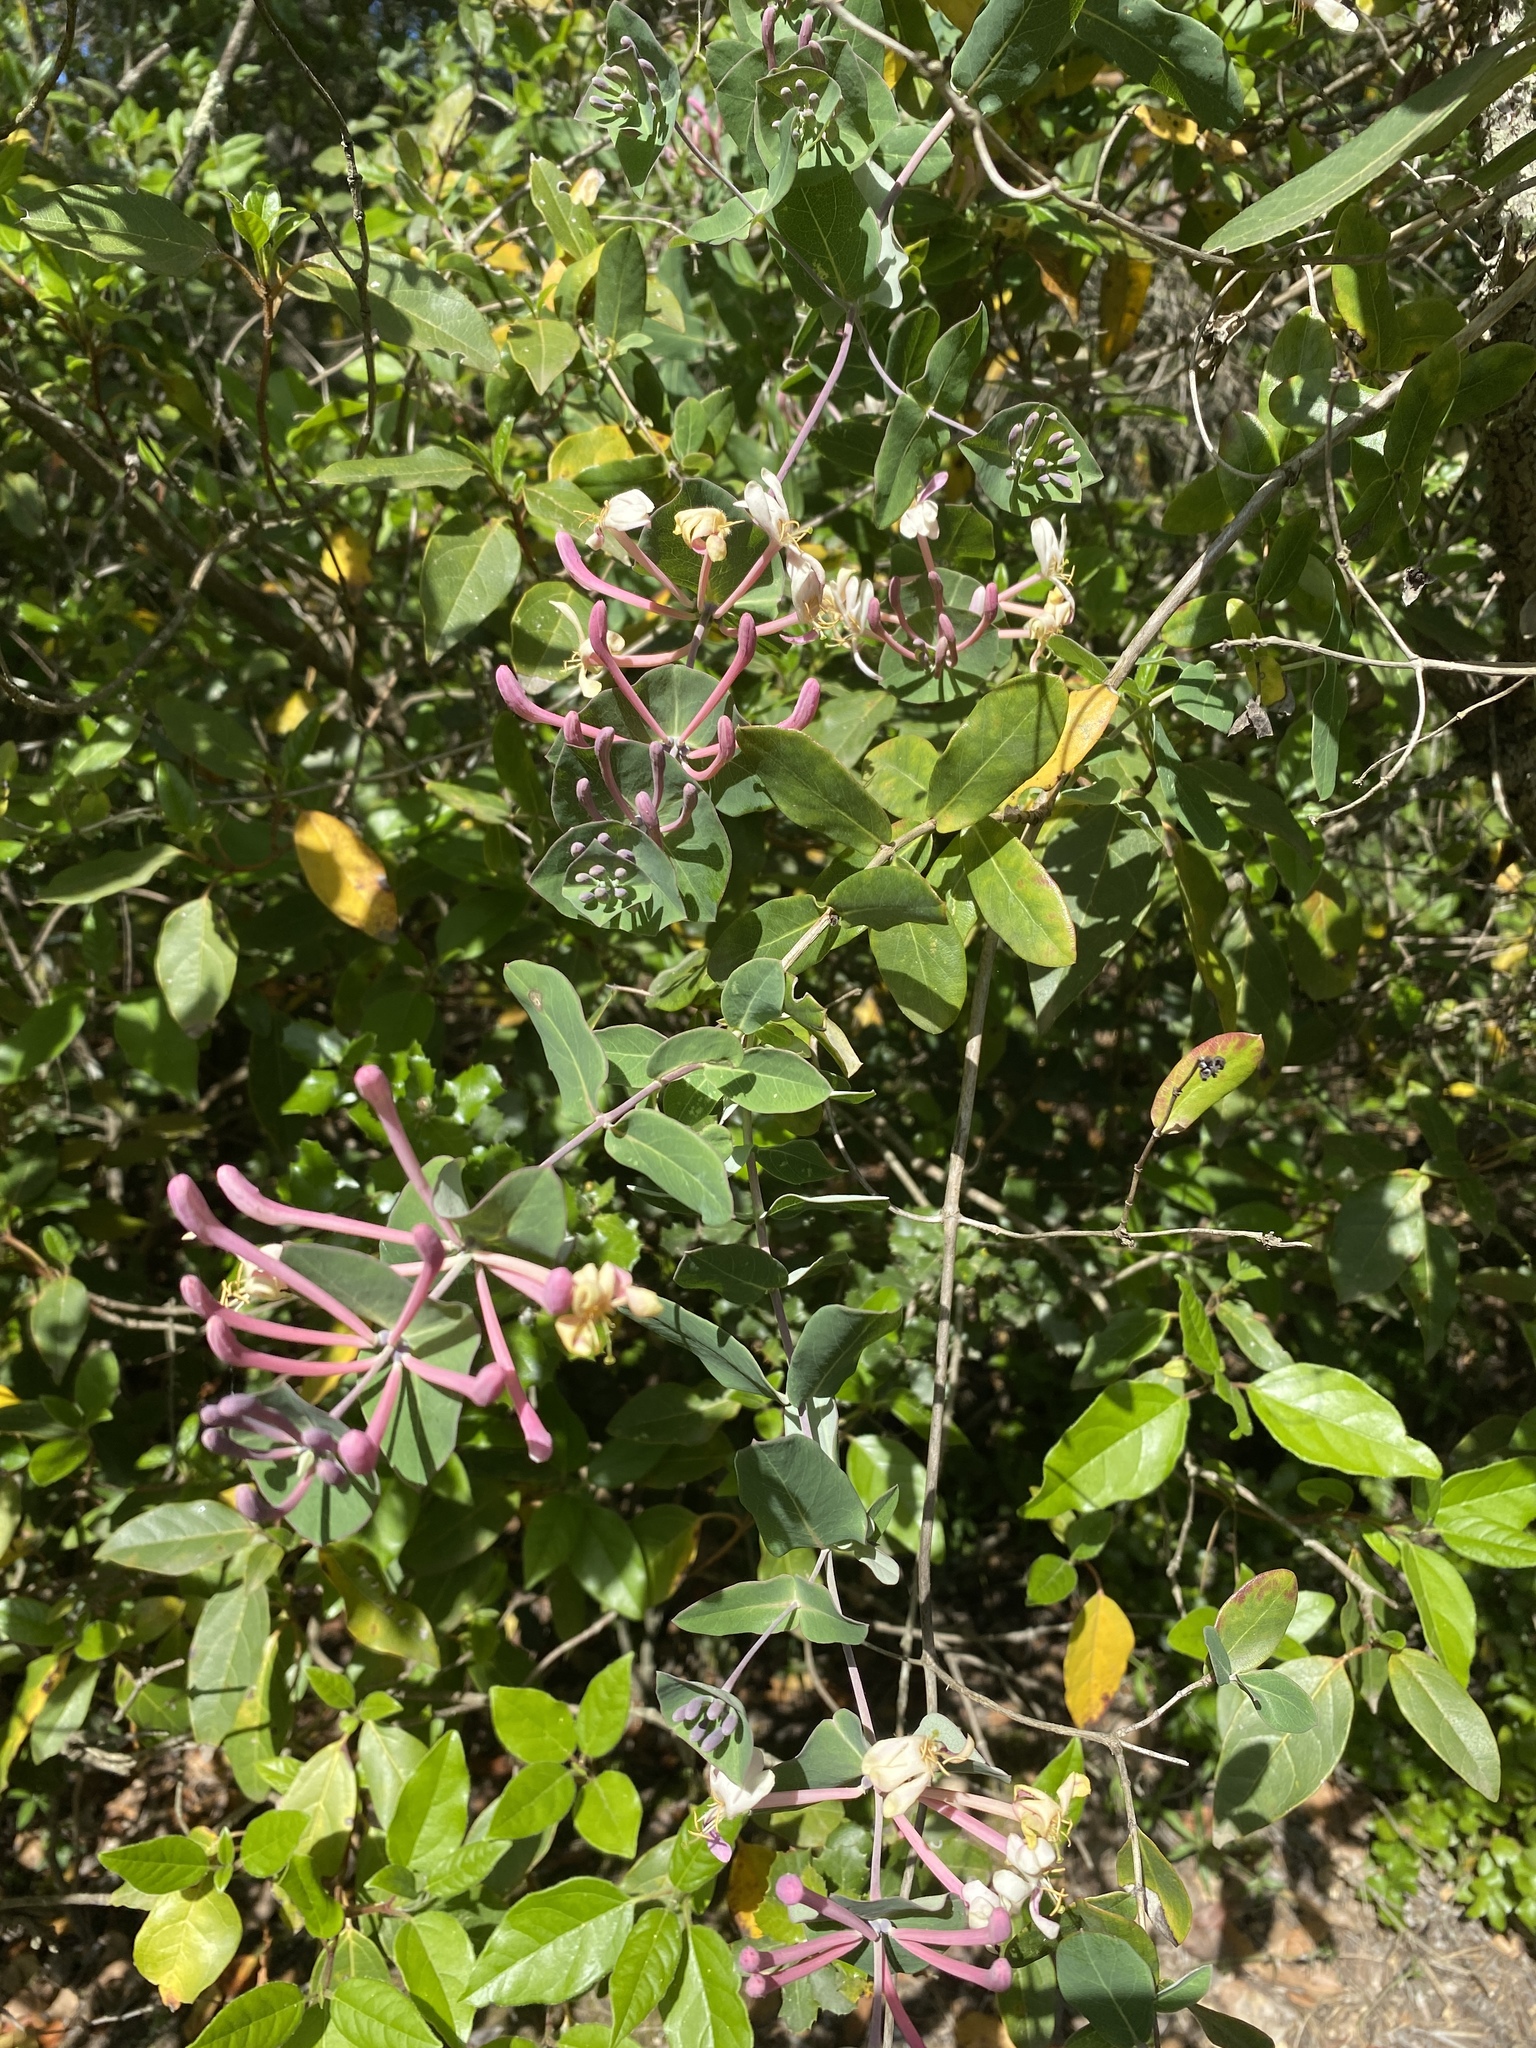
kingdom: Plantae
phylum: Tracheophyta
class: Magnoliopsida
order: Dipsacales
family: Caprifoliaceae
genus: Lonicera
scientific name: Lonicera implexa
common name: Minorca honeysuckle
